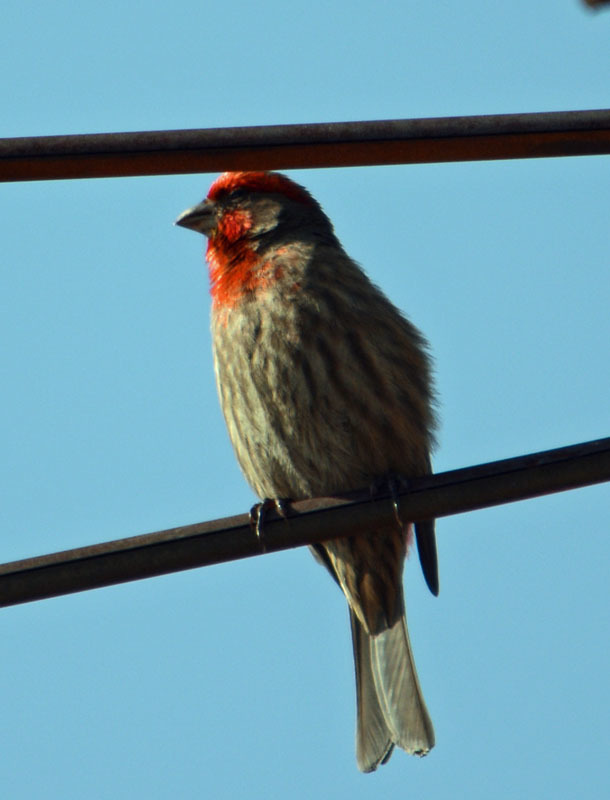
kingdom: Animalia
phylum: Chordata
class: Aves
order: Passeriformes
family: Fringillidae
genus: Haemorhous
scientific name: Haemorhous mexicanus
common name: House finch
